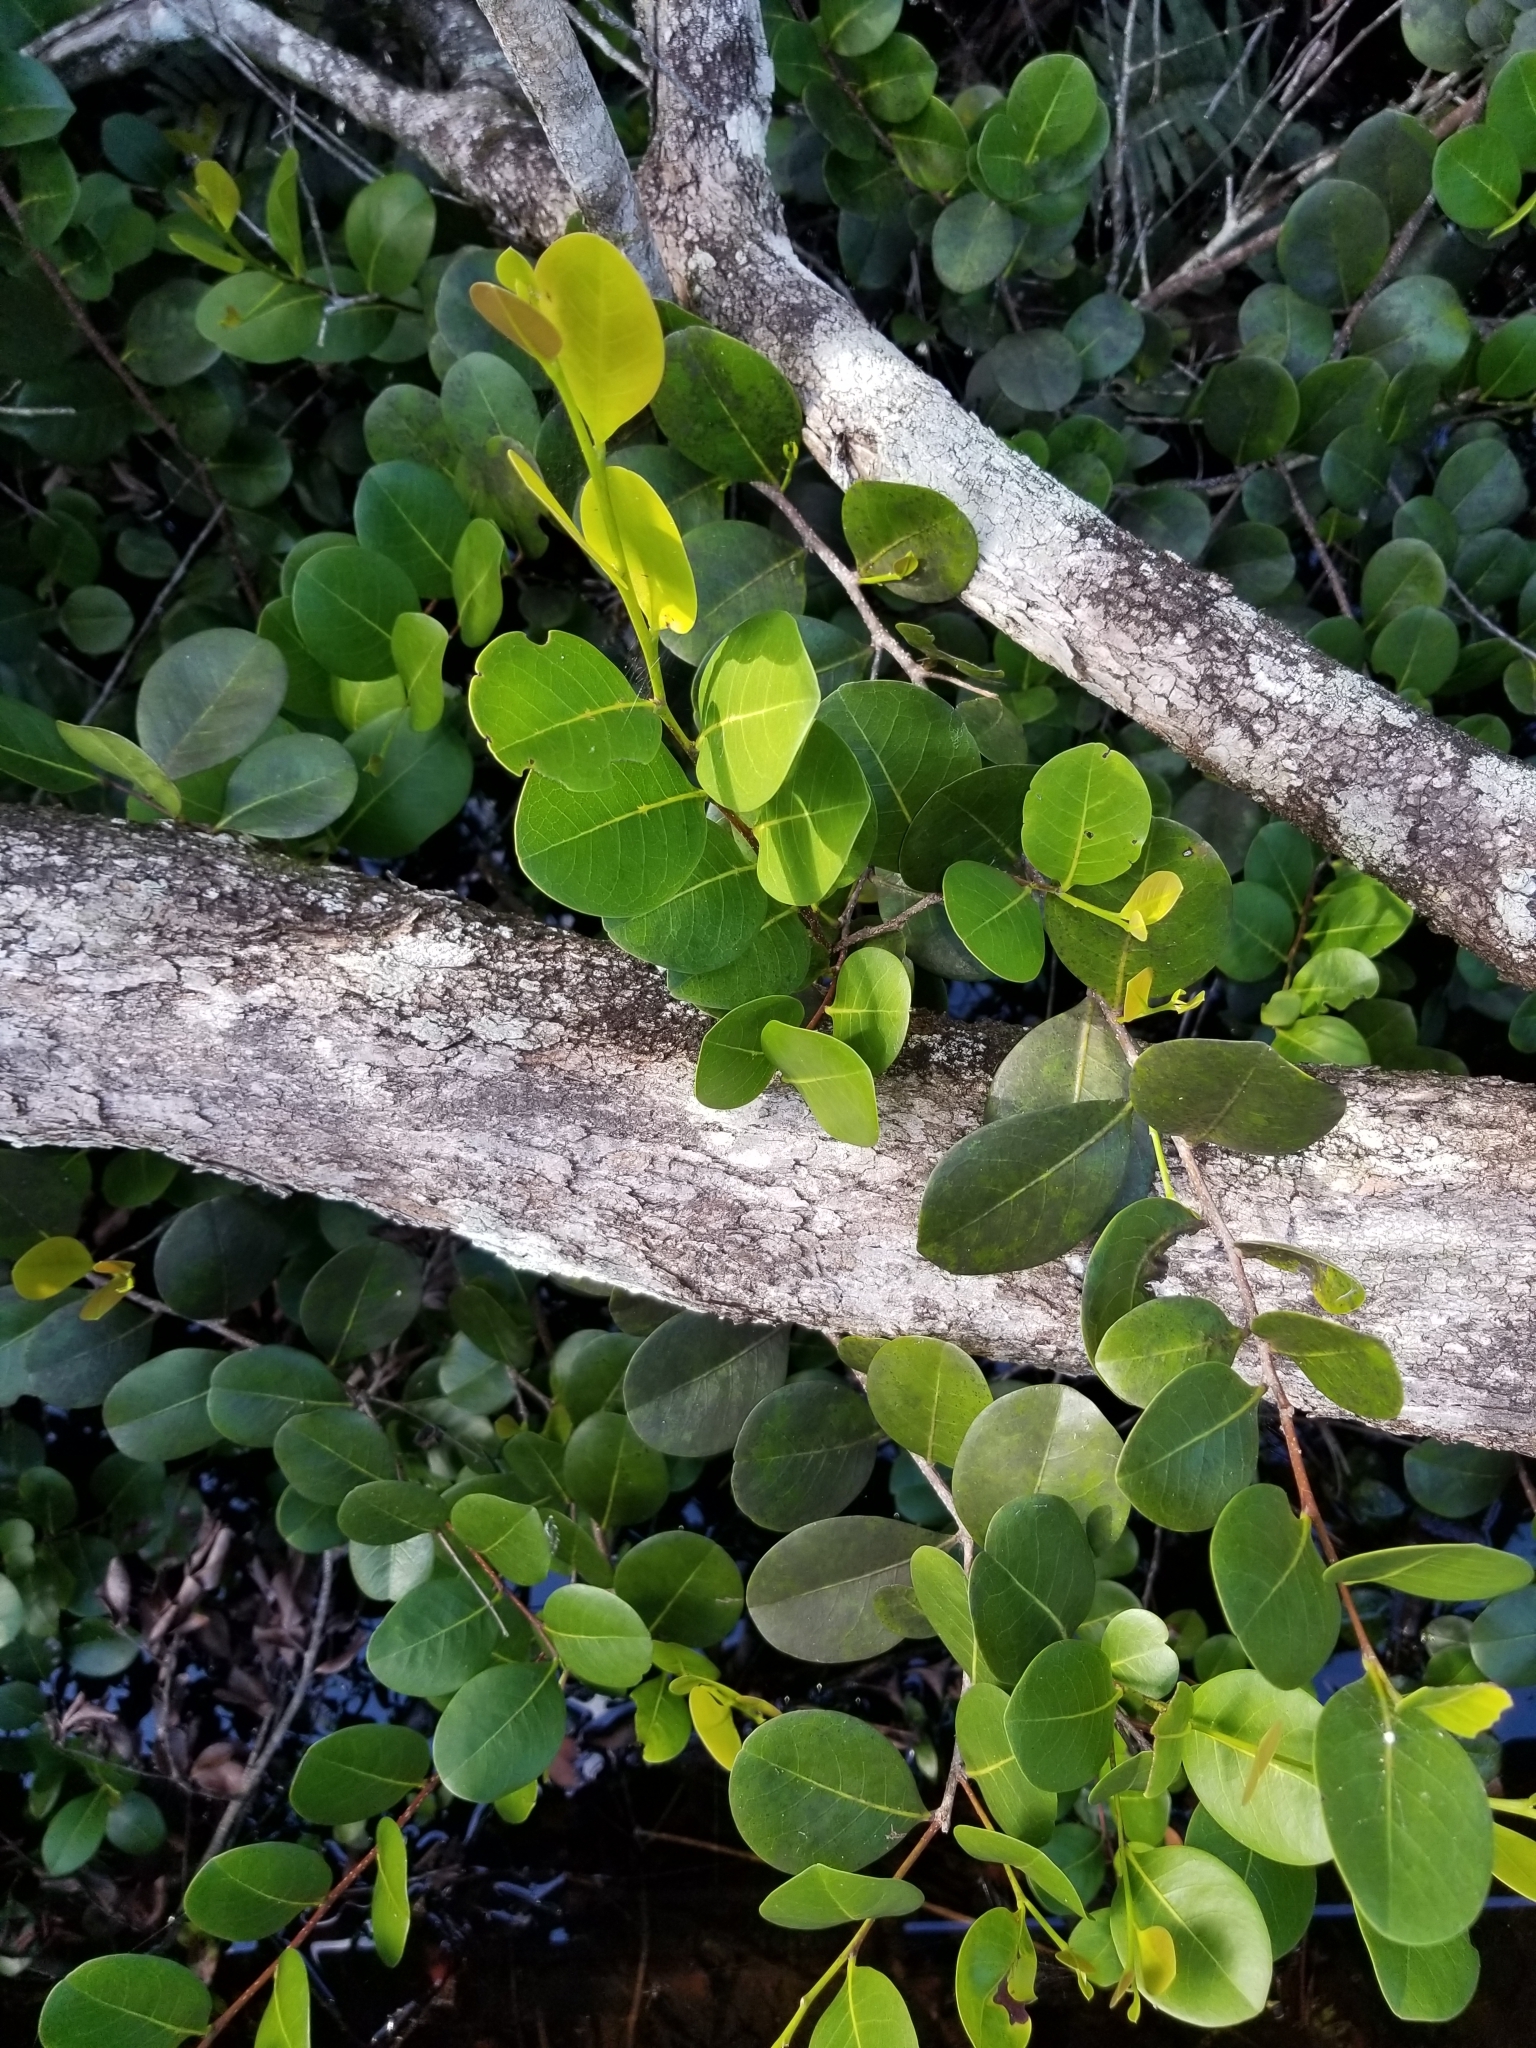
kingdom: Plantae
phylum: Tracheophyta
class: Magnoliopsida
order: Malpighiales
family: Chrysobalanaceae
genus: Chrysobalanus
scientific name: Chrysobalanus icaco
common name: Coco plum
